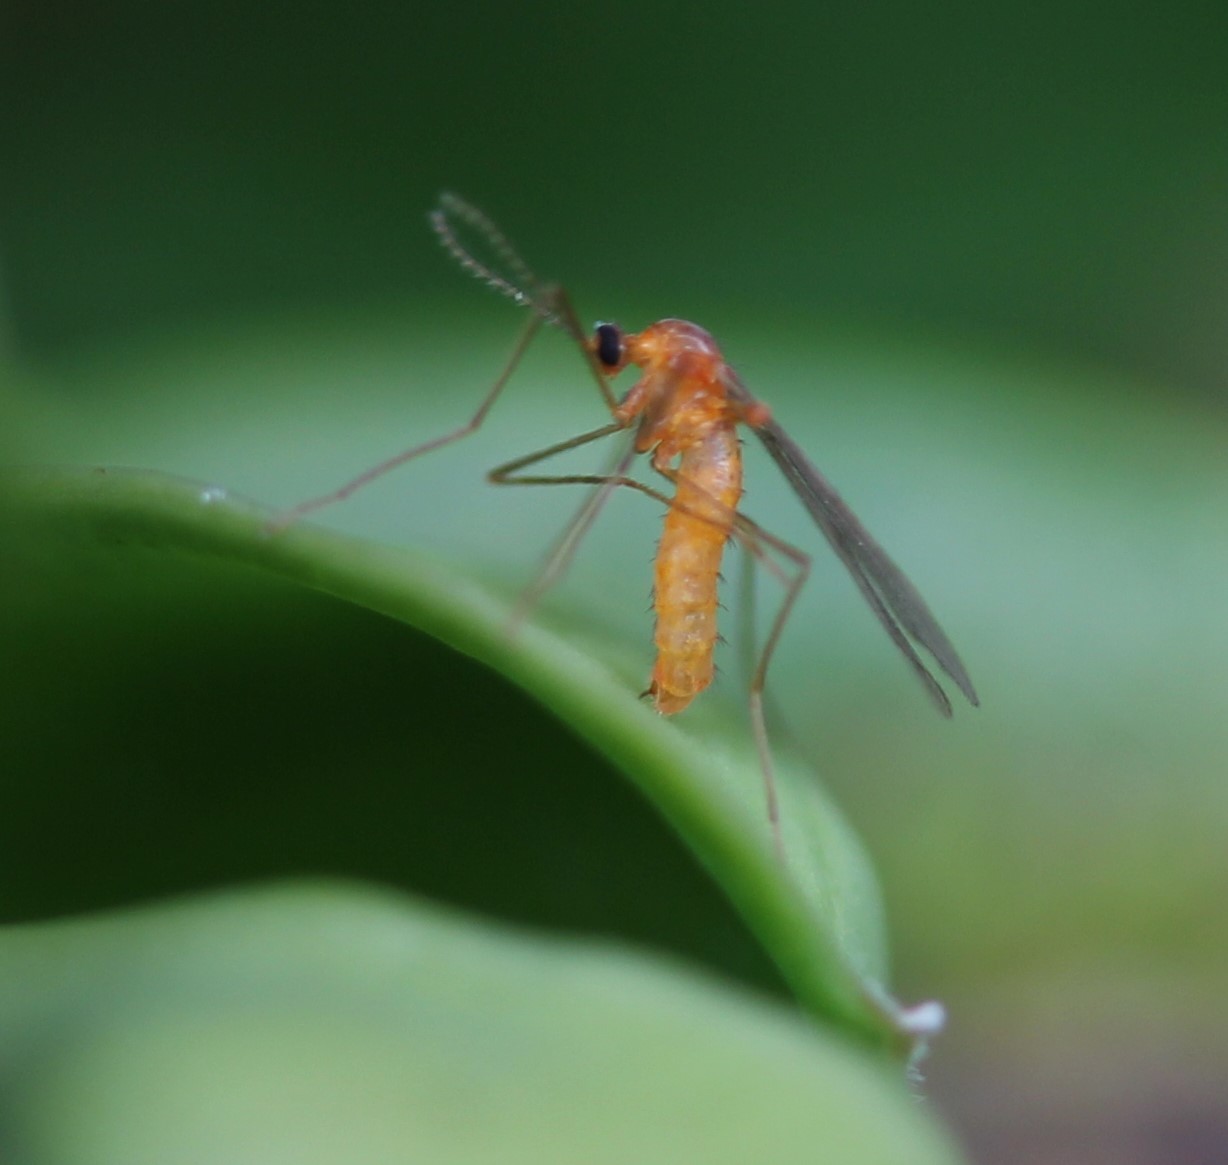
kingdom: Animalia
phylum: Arthropoda
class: Insecta
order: Diptera
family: Cecidomyiidae
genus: Monarthropalpus
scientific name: Monarthropalpus flavus
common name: Boxwood leafminer
